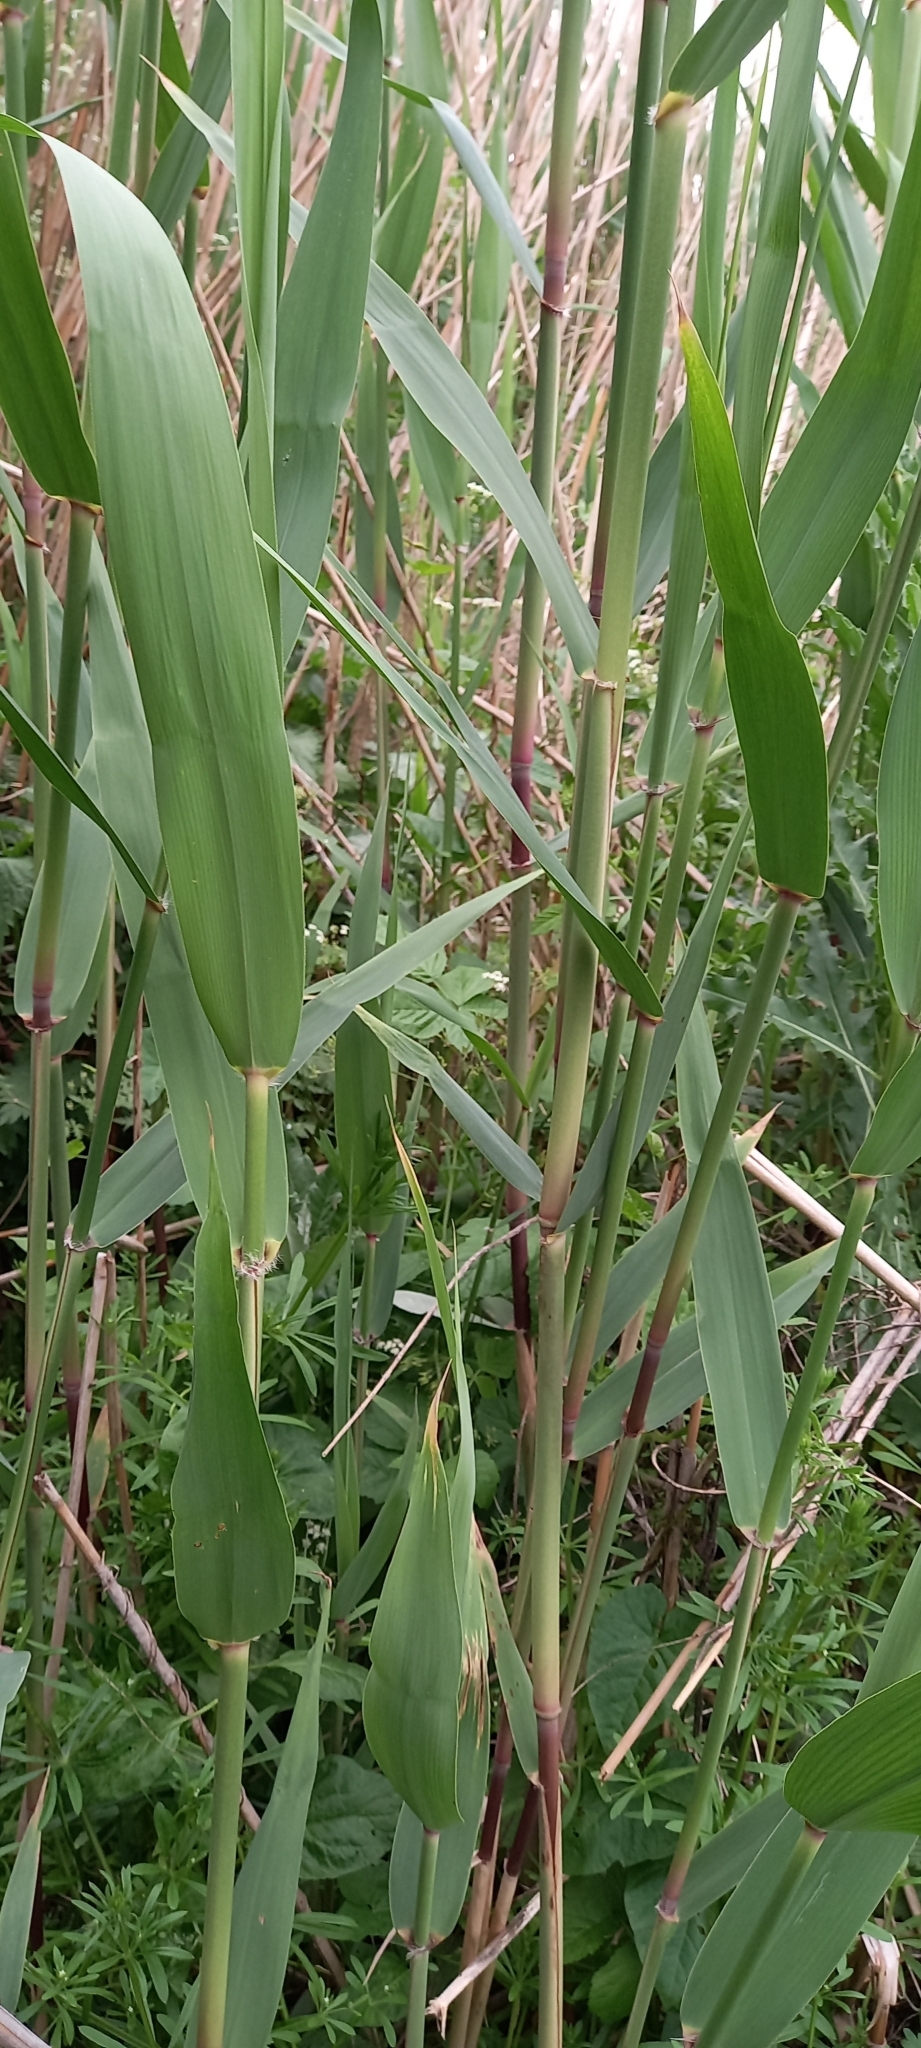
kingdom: Plantae
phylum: Tracheophyta
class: Liliopsida
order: Poales
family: Poaceae
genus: Phragmites
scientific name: Phragmites australis
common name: Common reed
